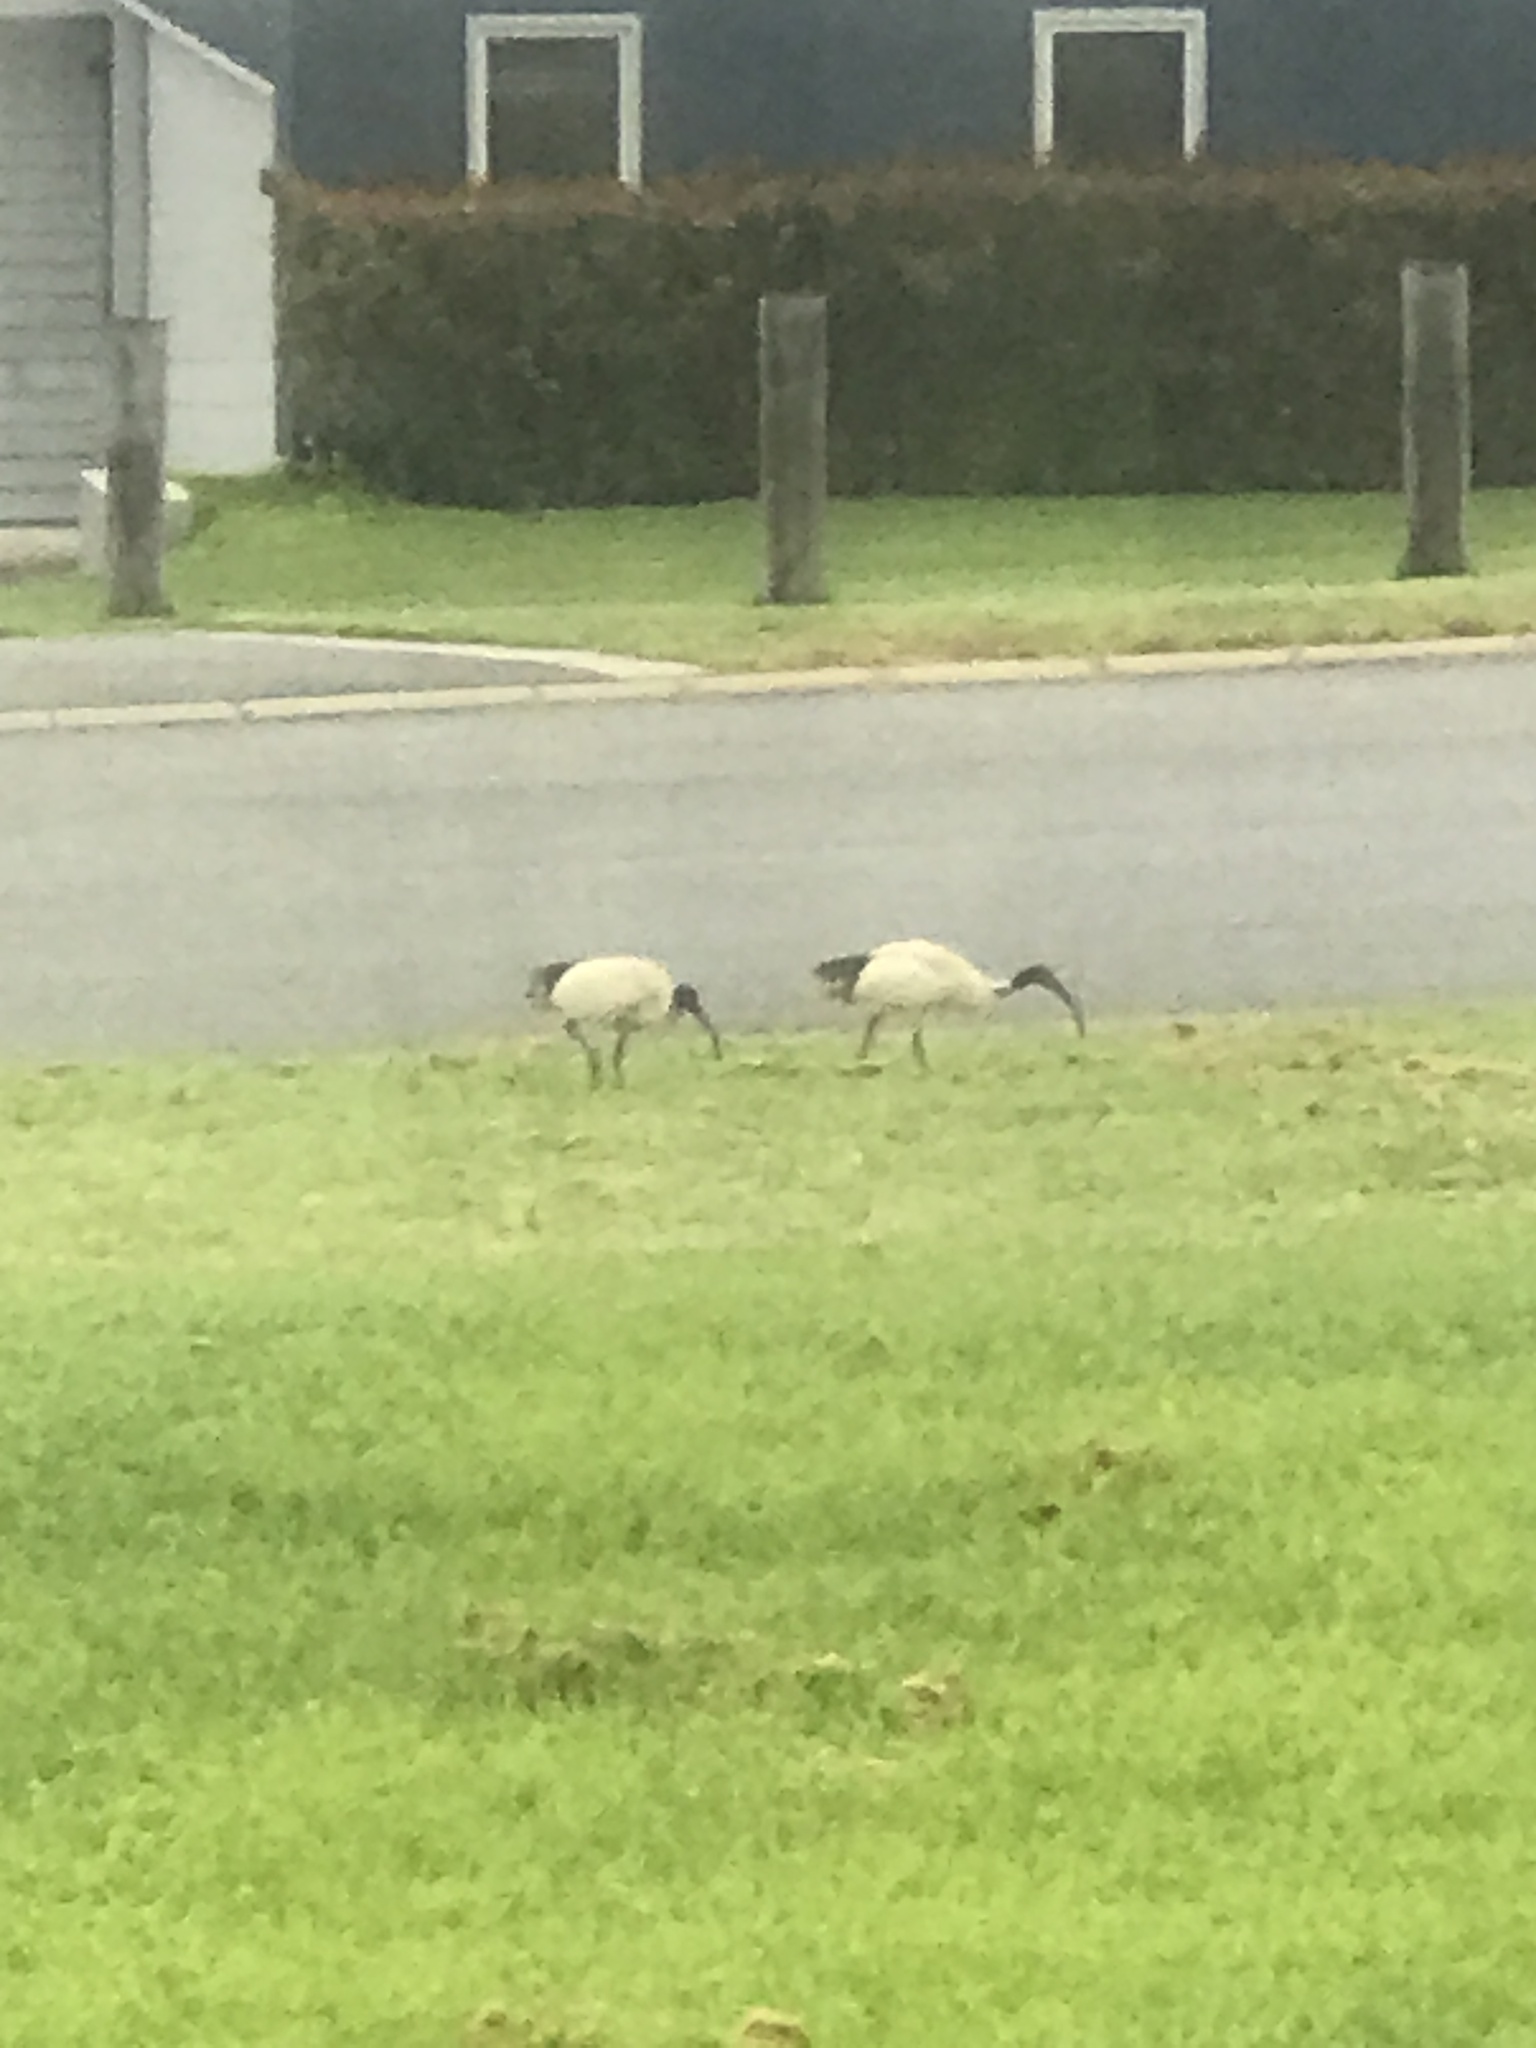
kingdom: Animalia
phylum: Chordata
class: Aves
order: Pelecaniformes
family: Threskiornithidae
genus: Threskiornis
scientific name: Threskiornis molucca
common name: Australian white ibis
